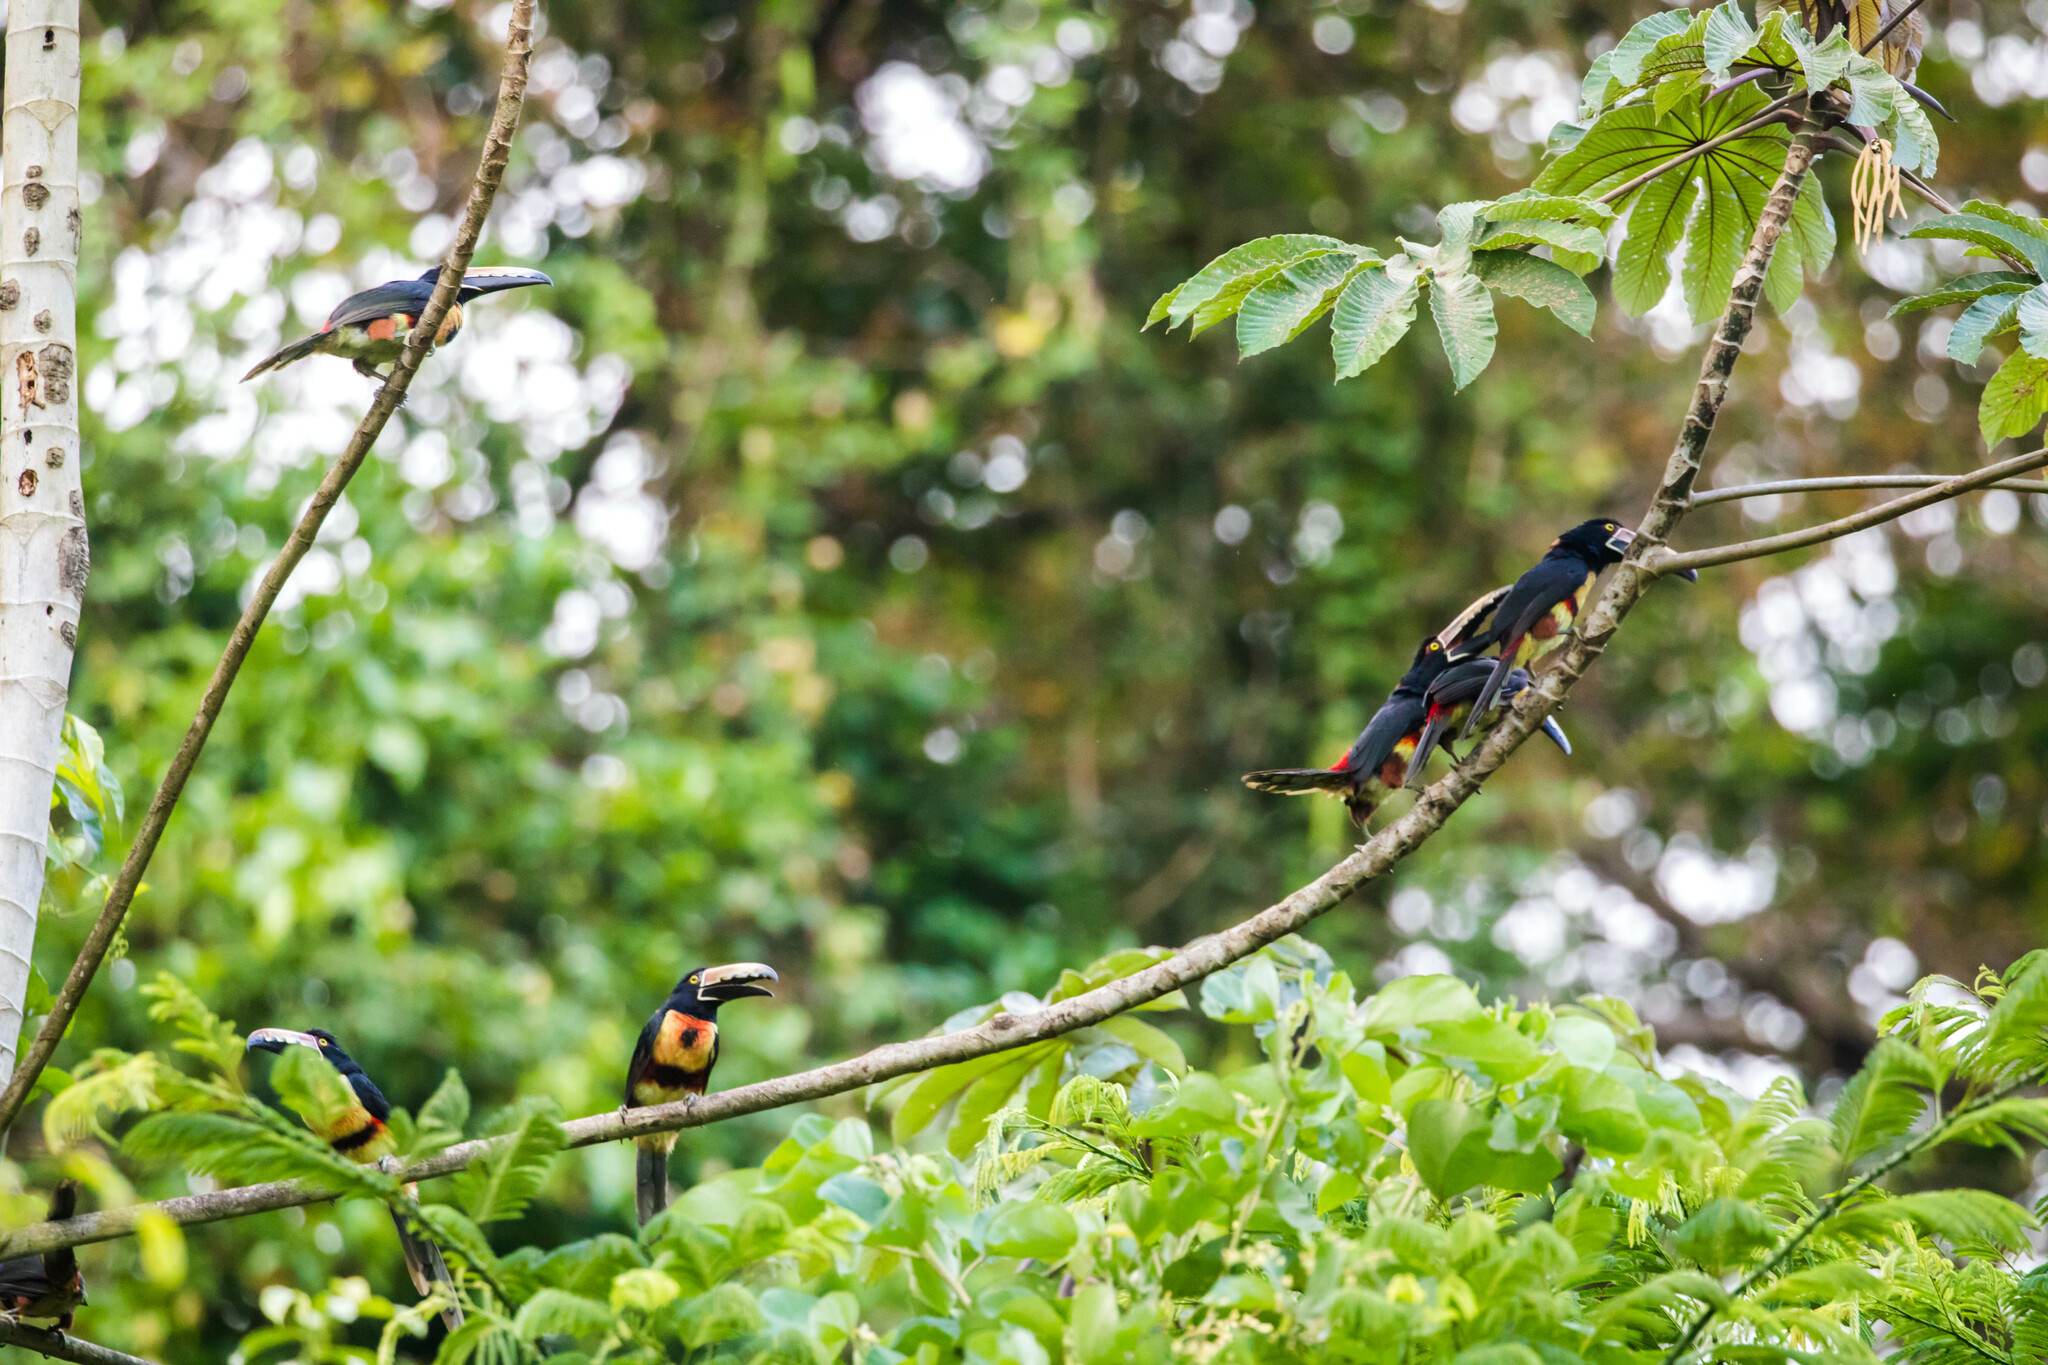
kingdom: Animalia
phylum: Chordata
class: Aves
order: Piciformes
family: Ramphastidae
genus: Pteroglossus
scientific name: Pteroglossus torquatus
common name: Collared aracari
